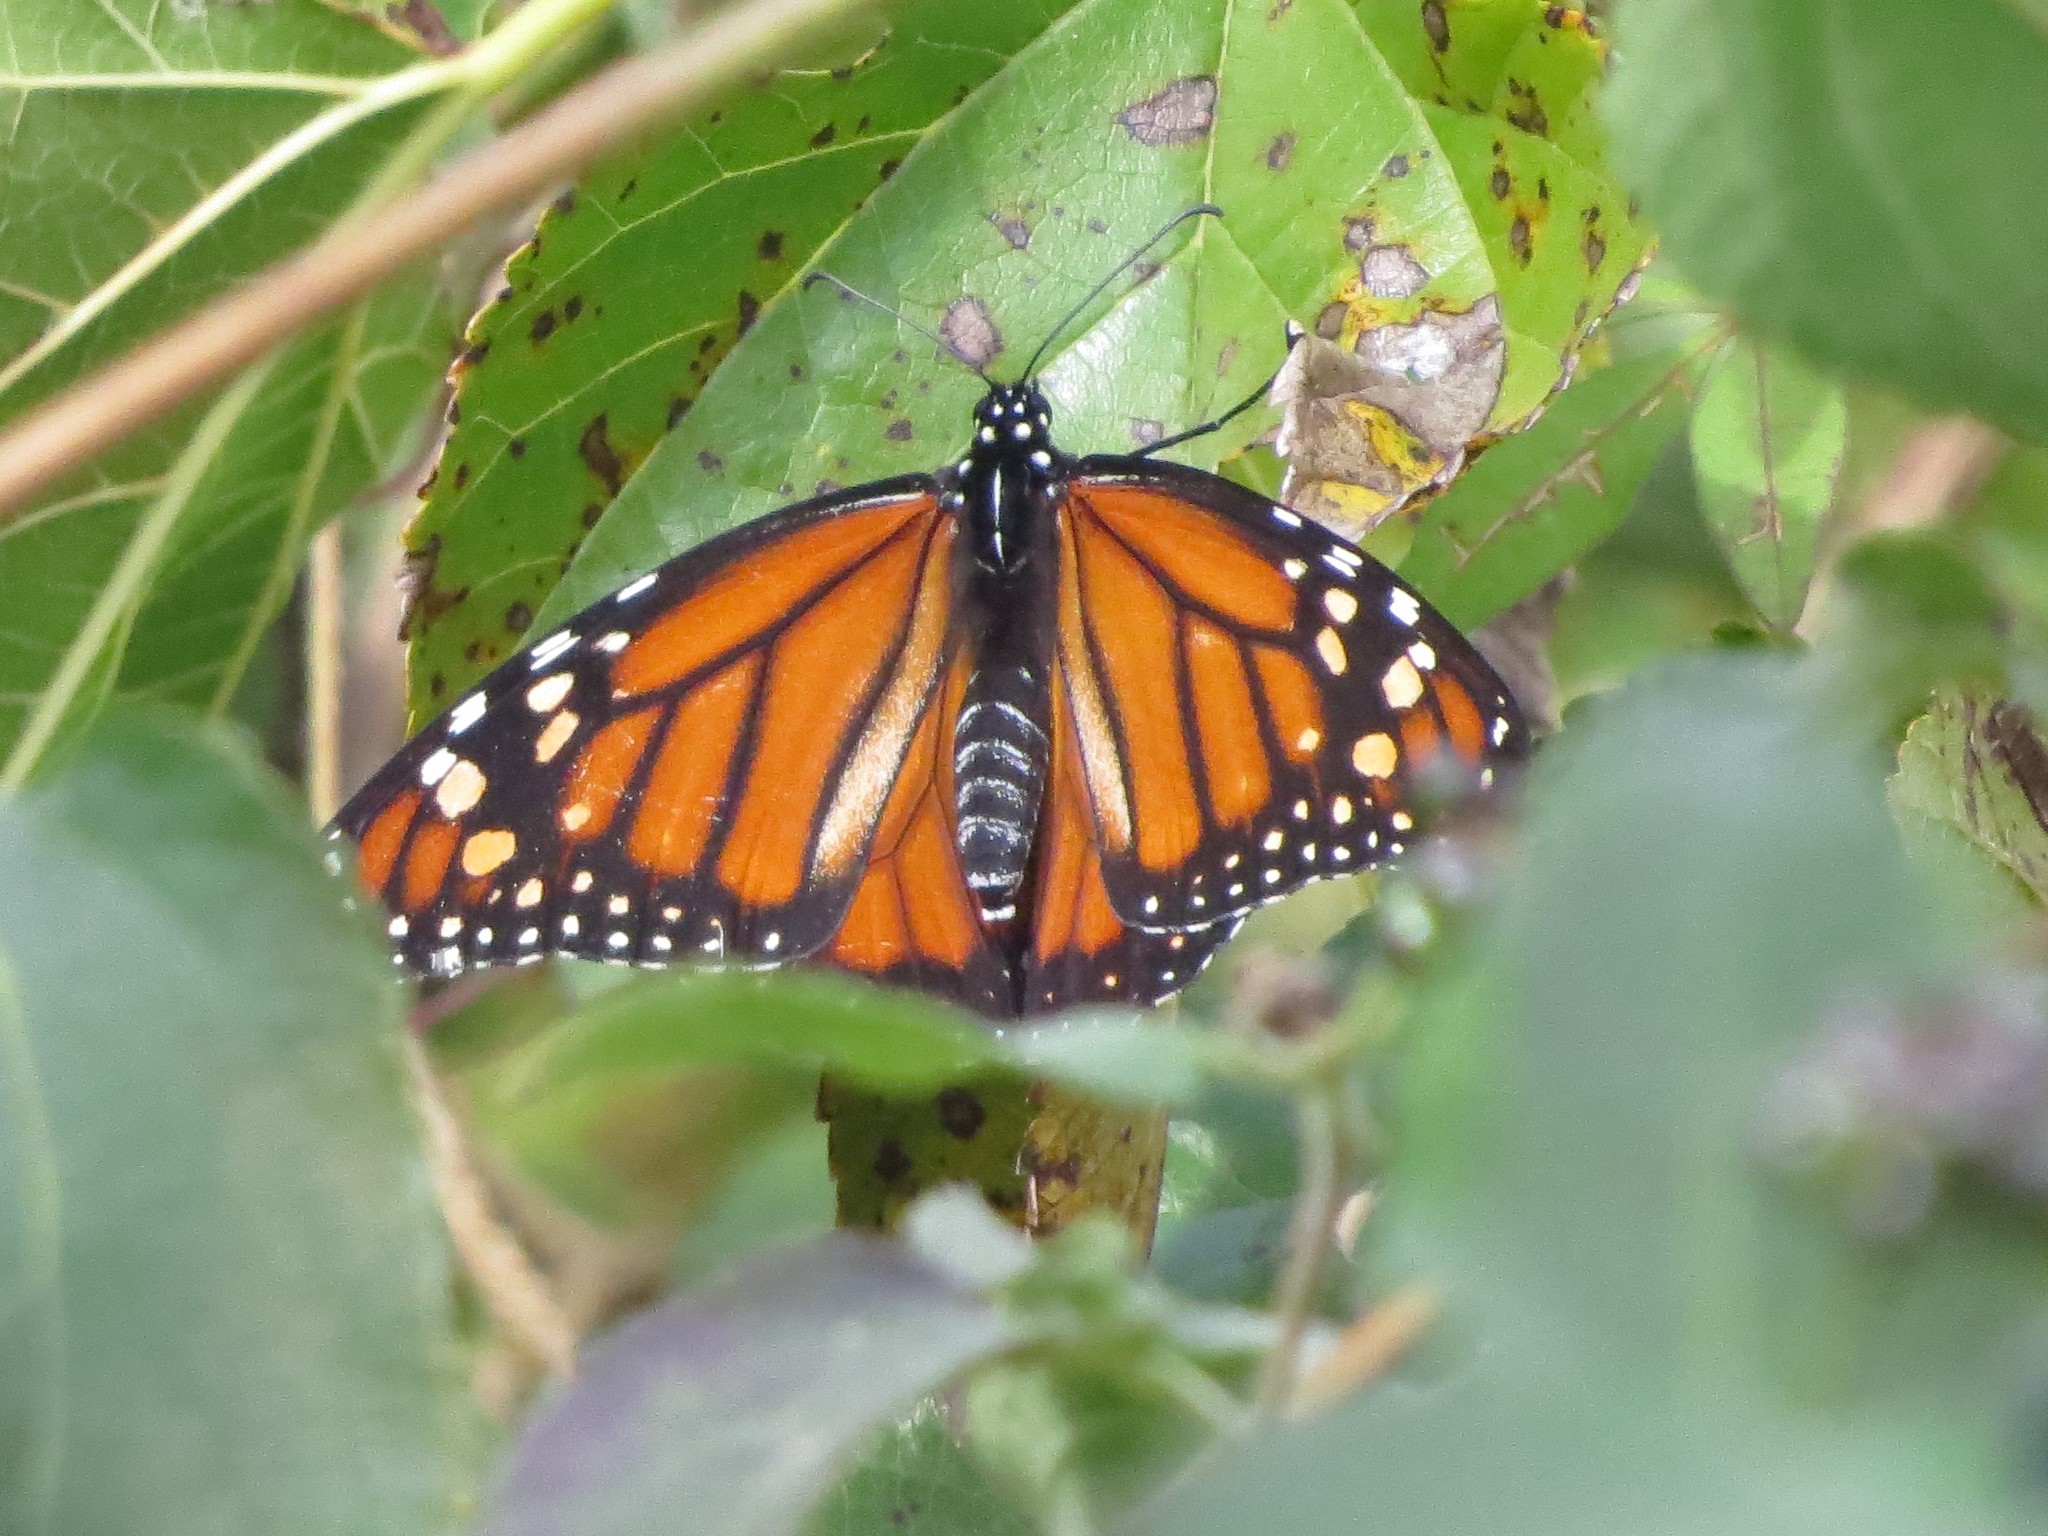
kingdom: Animalia
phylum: Arthropoda
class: Insecta
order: Lepidoptera
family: Nymphalidae
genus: Danaus
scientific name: Danaus erippus
